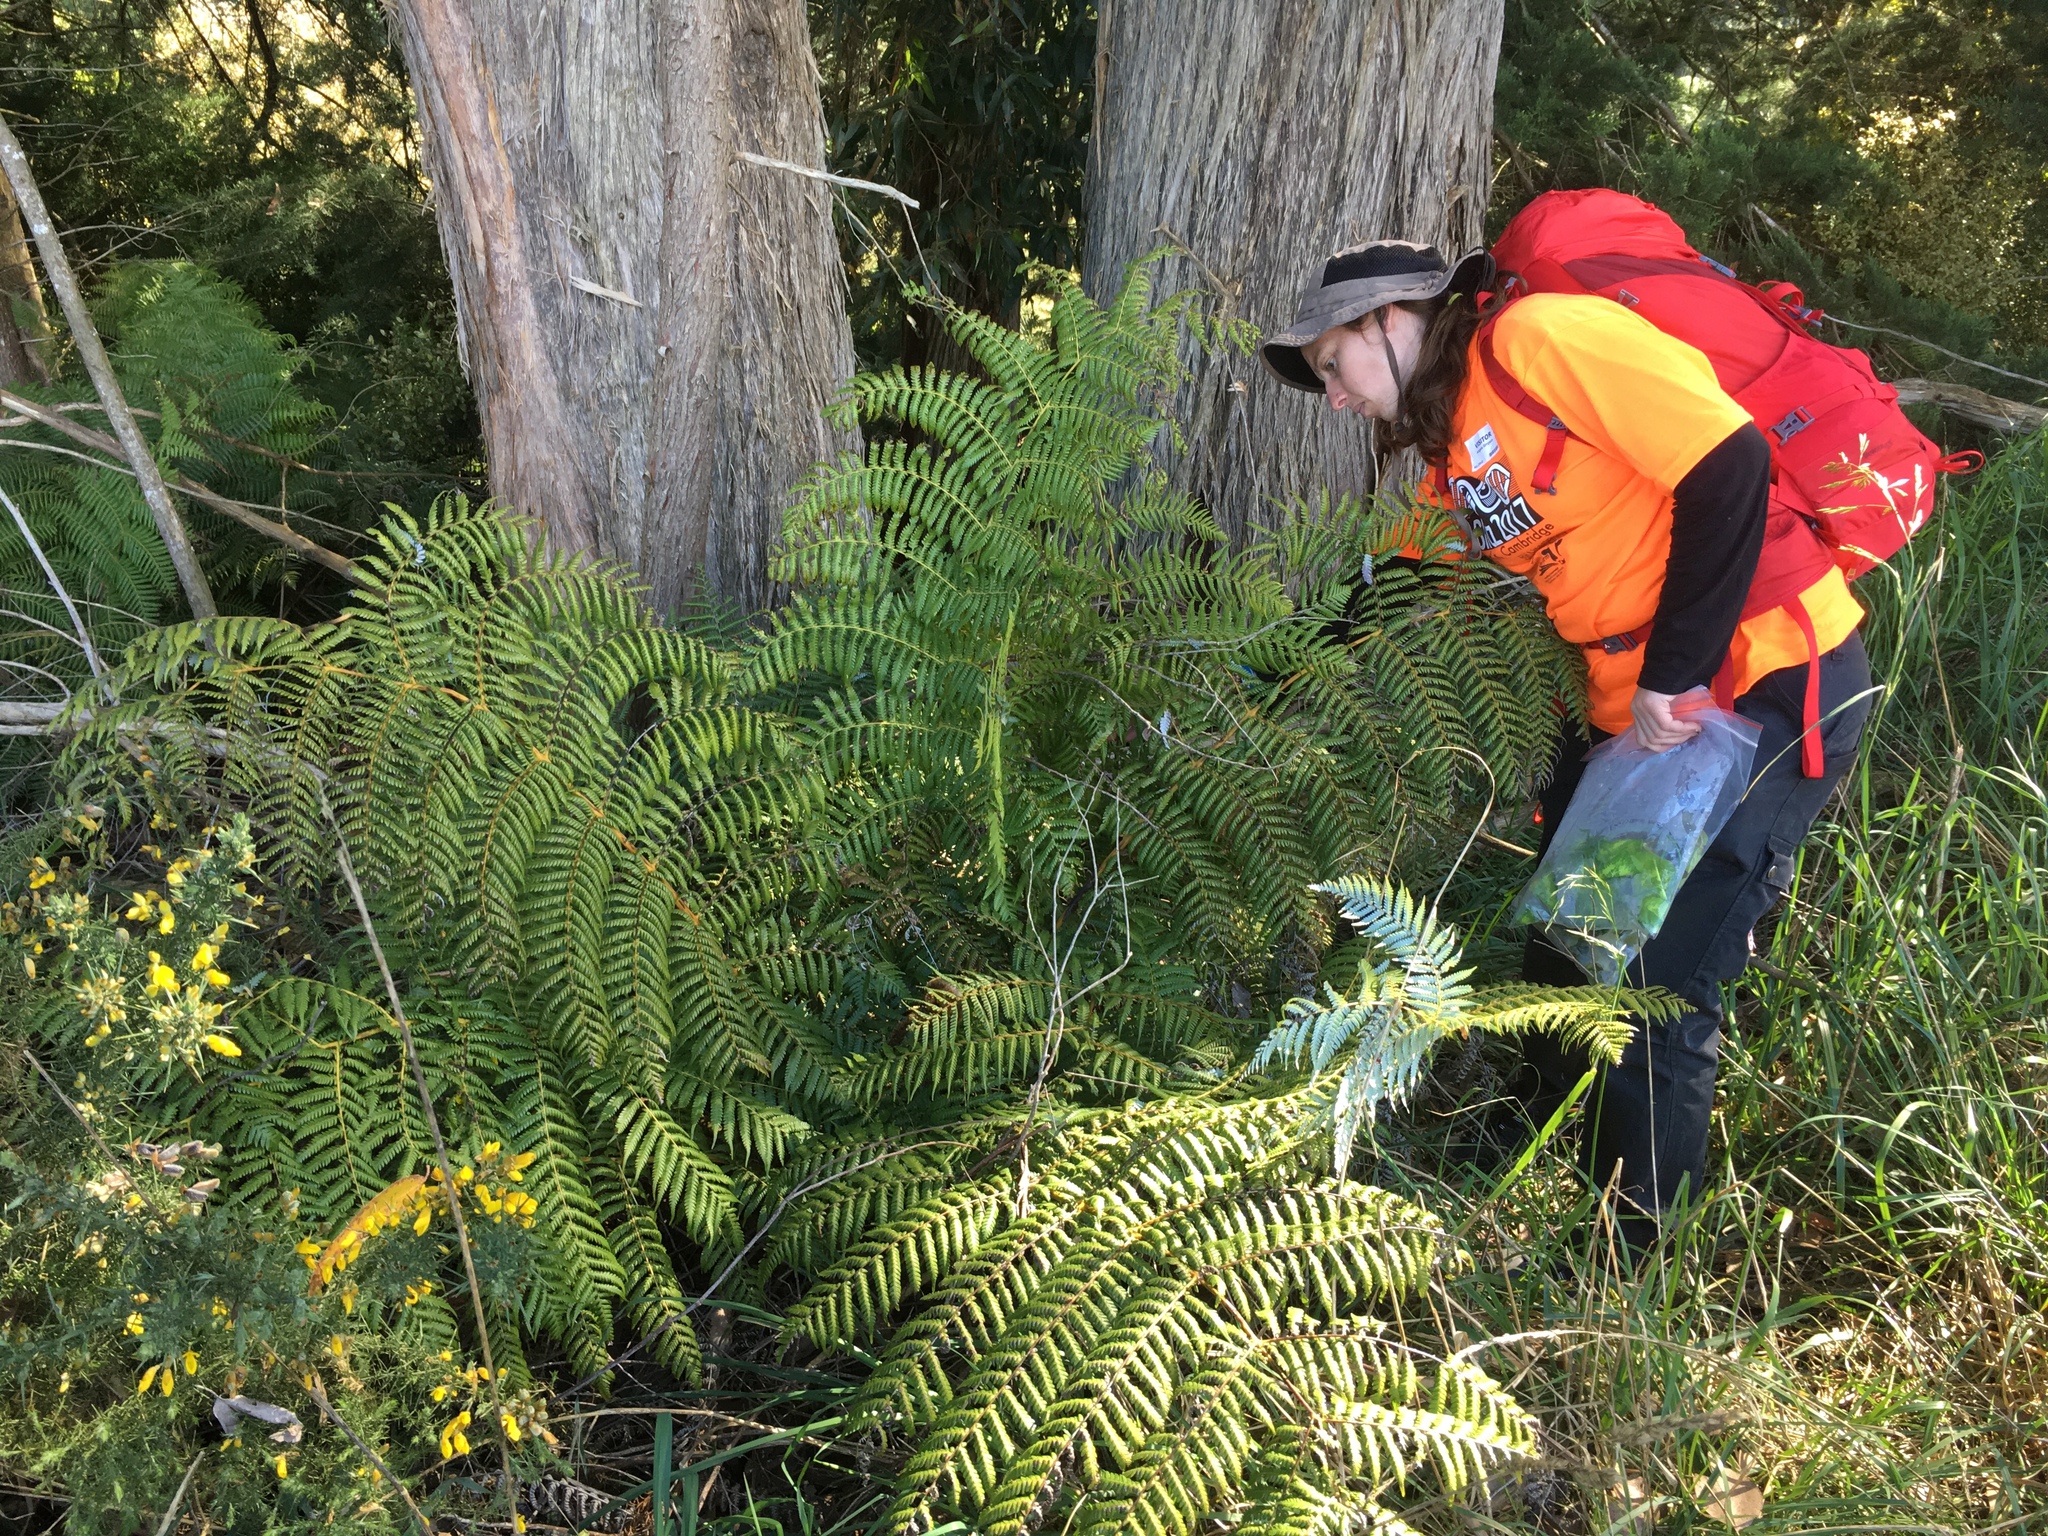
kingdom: Plantae
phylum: Tracheophyta
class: Polypodiopsida
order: Cyatheales
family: Cyatheaceae
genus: Alsophila
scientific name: Alsophila dealbata
